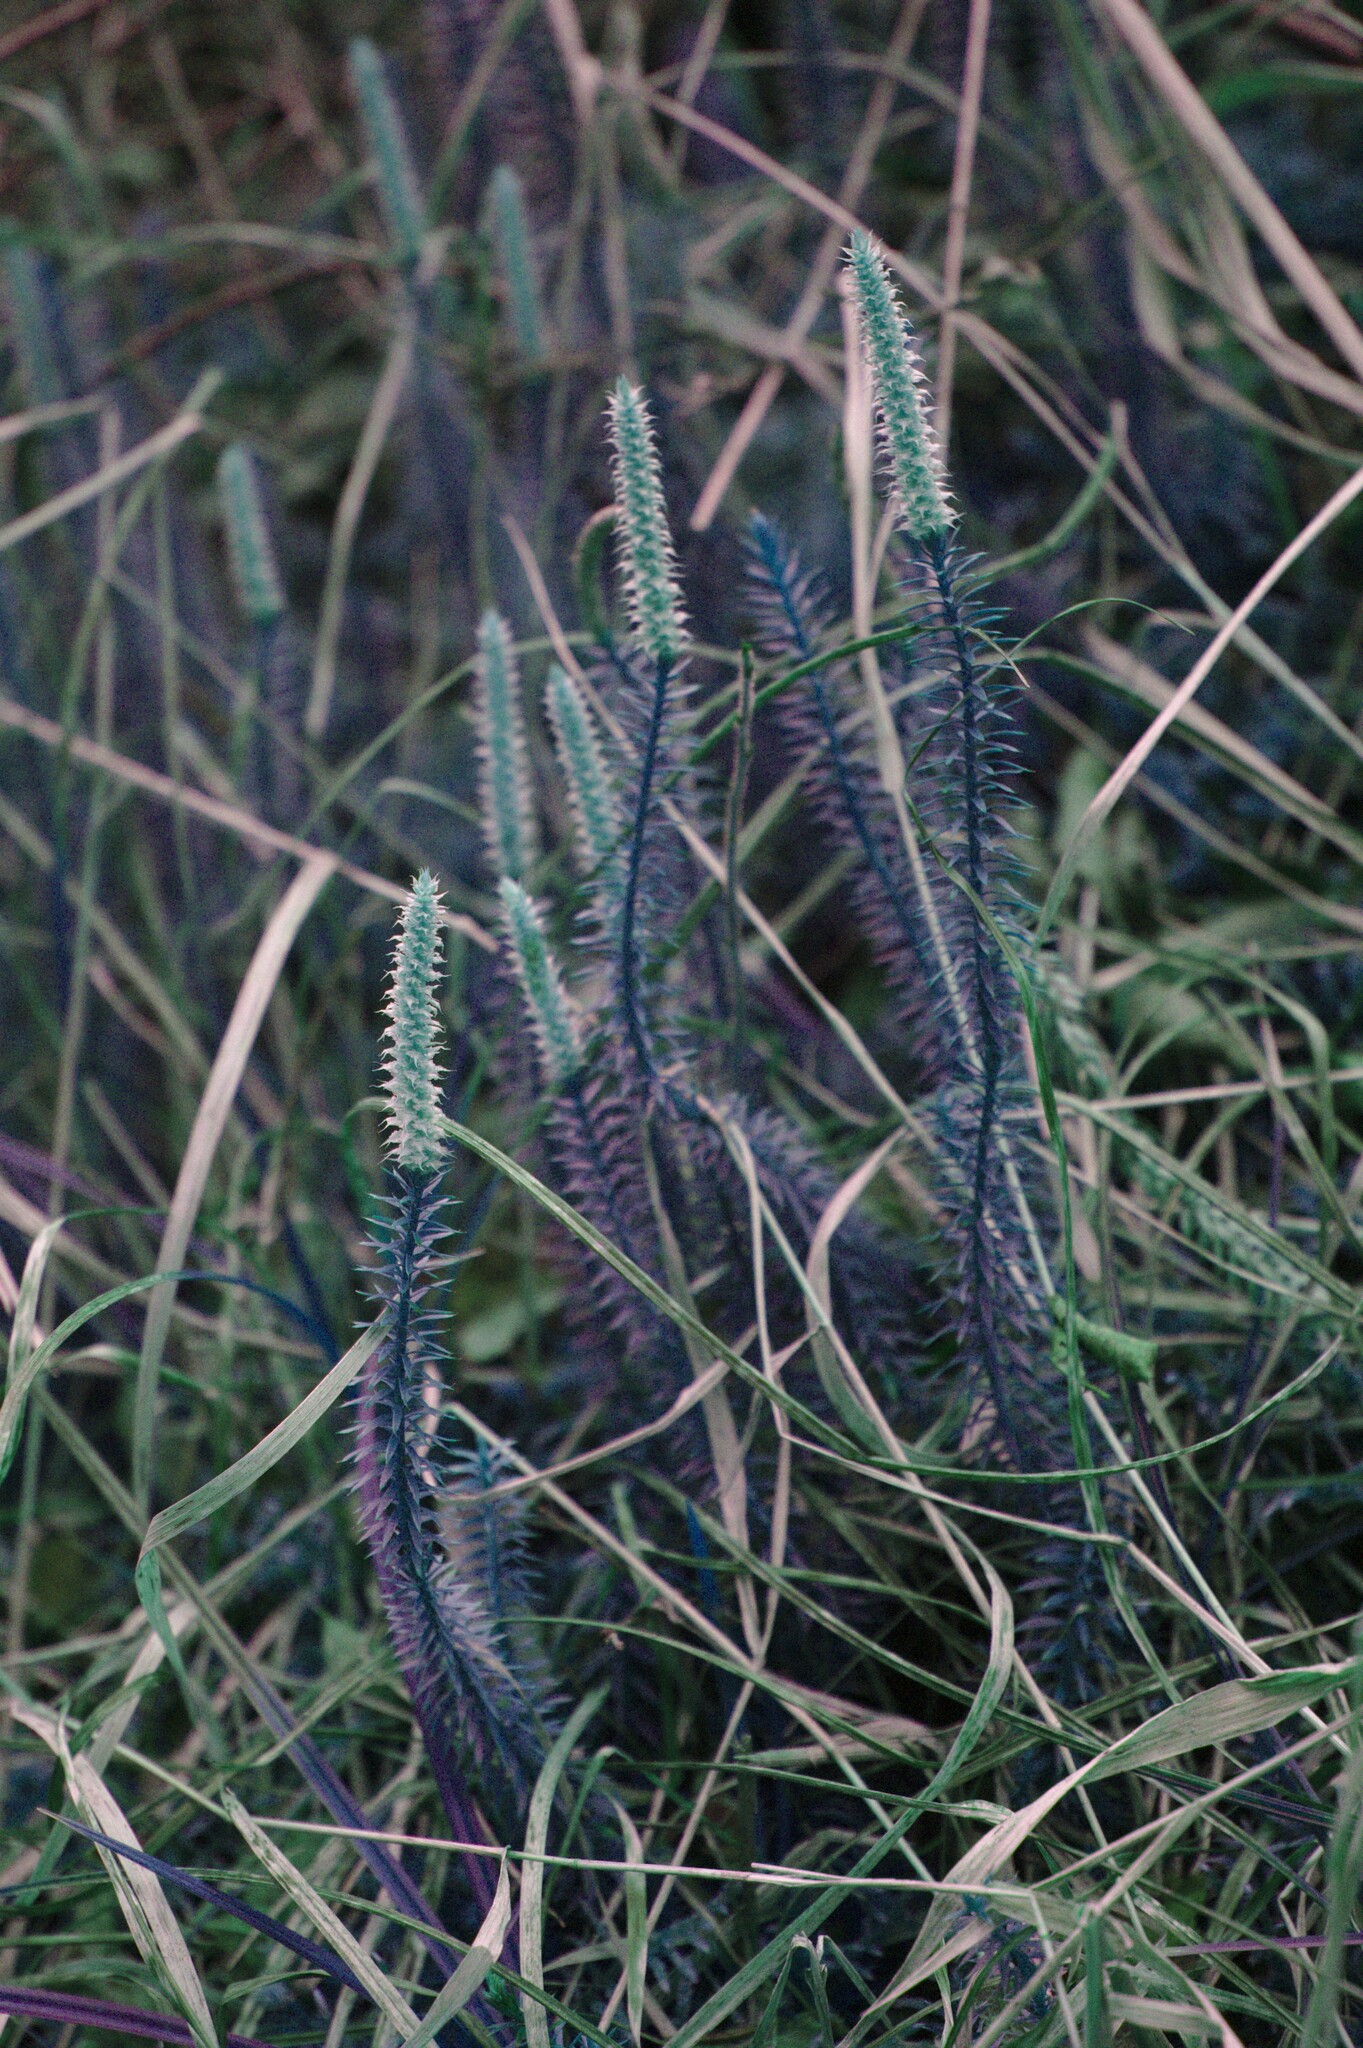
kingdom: Plantae
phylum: Tracheophyta
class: Lycopodiopsida
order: Lycopodiales
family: Lycopodiaceae
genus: Spinulum
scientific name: Spinulum annotinum
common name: Interrupted club-moss
